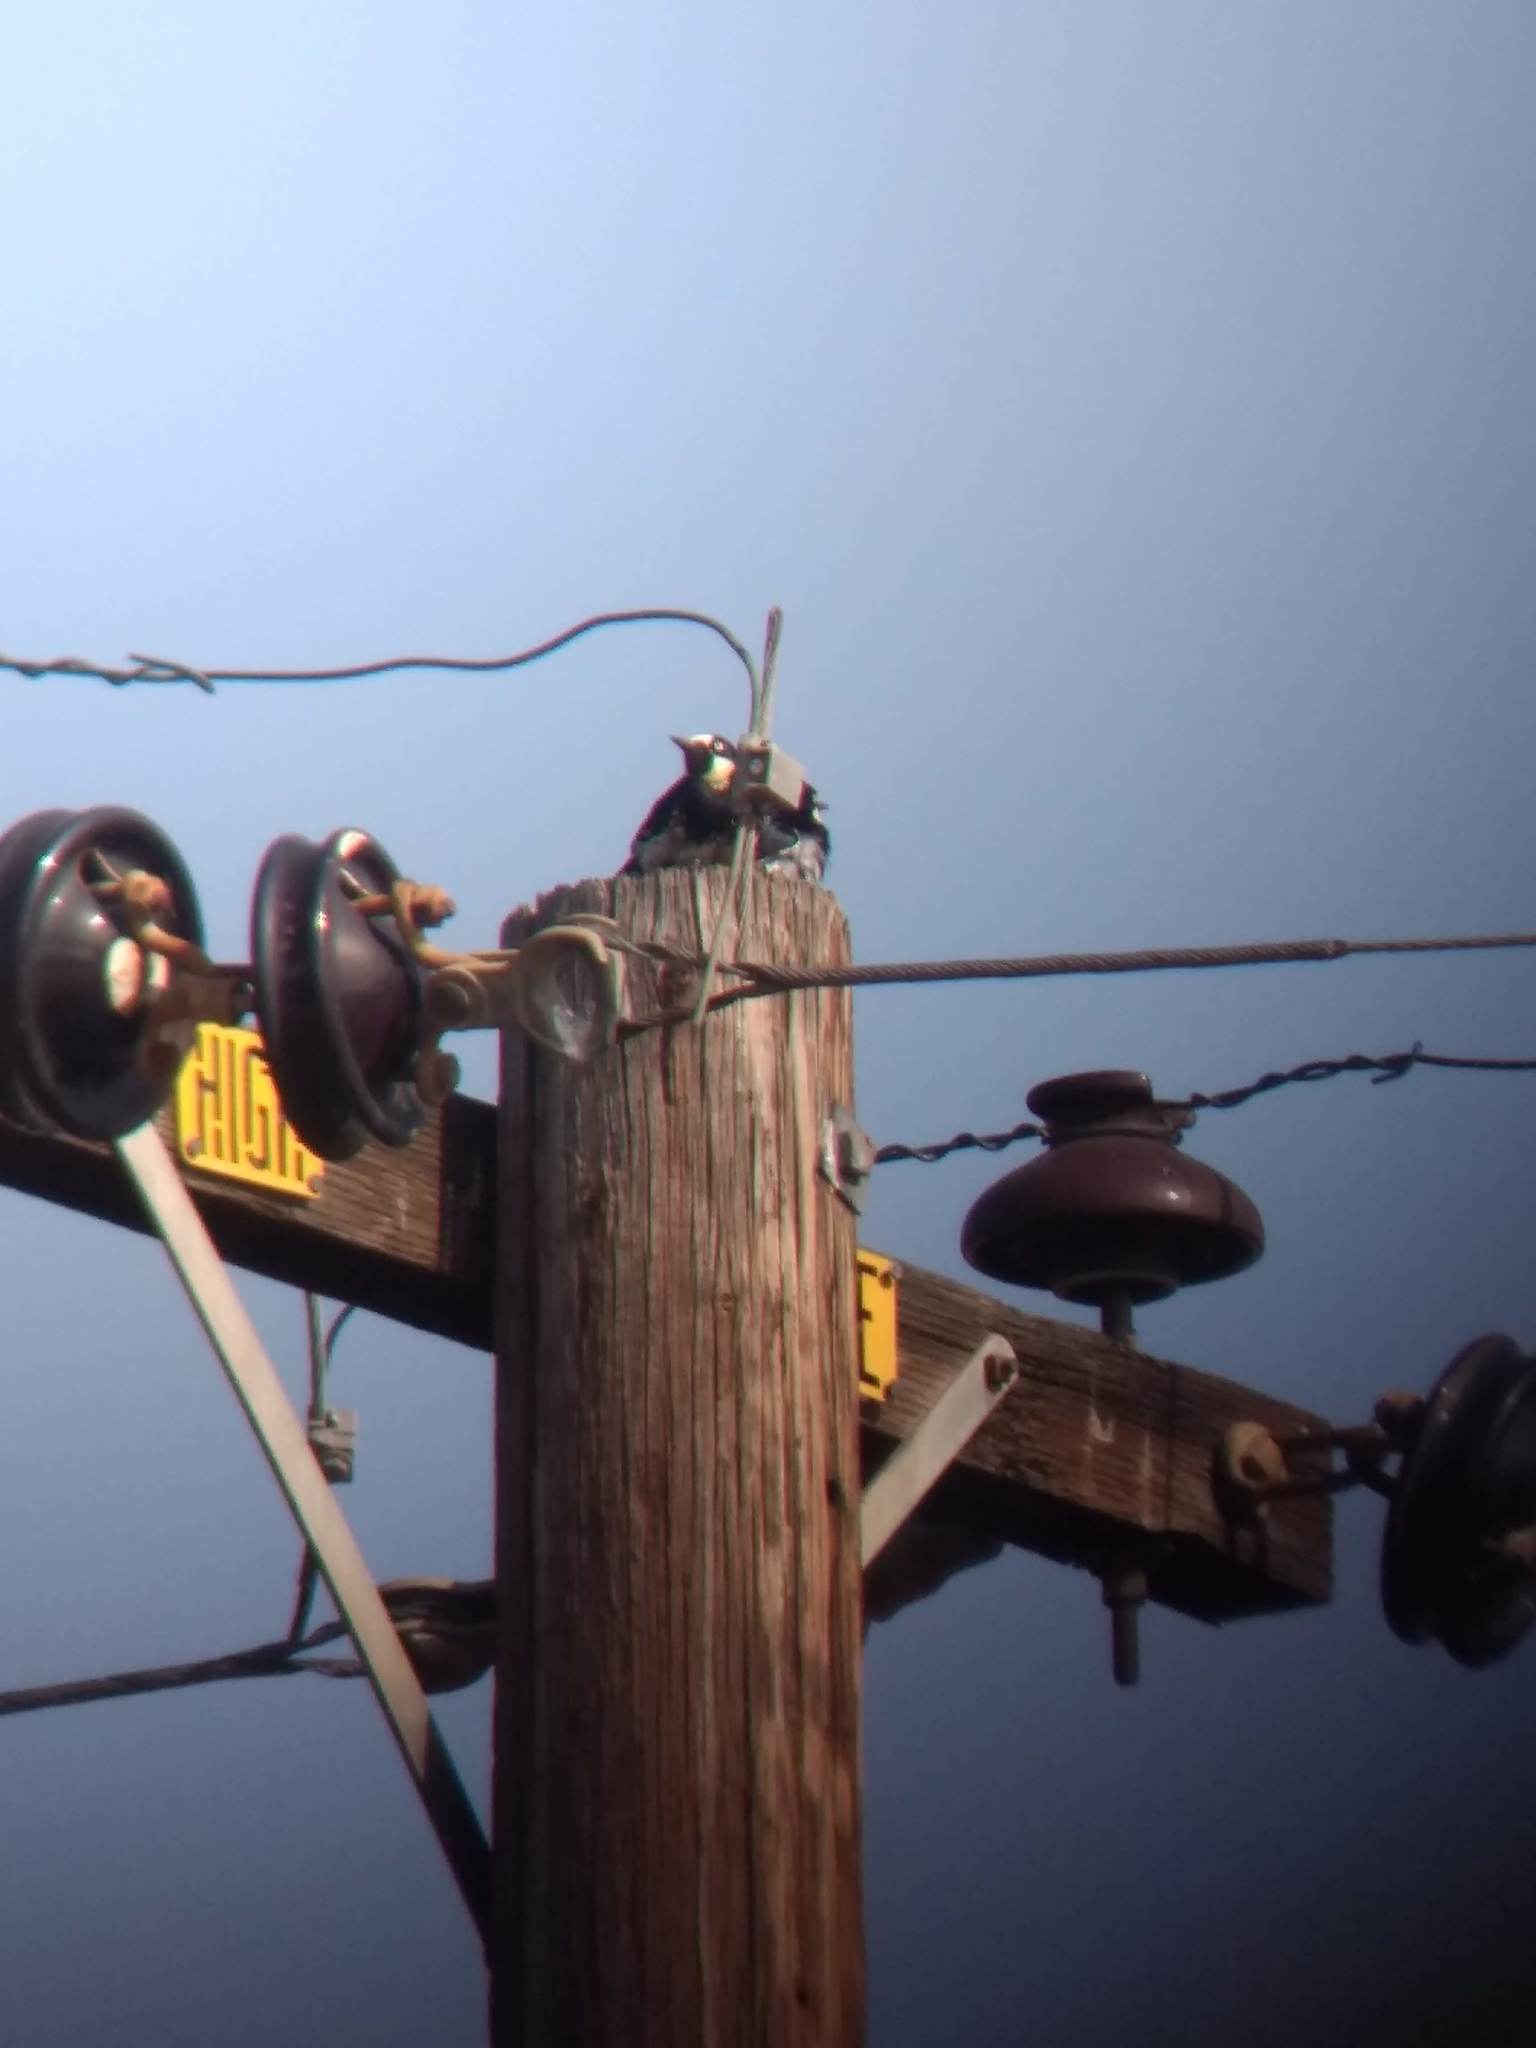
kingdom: Animalia
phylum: Chordata
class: Aves
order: Piciformes
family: Picidae
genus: Melanerpes
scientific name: Melanerpes formicivorus
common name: Acorn woodpecker
